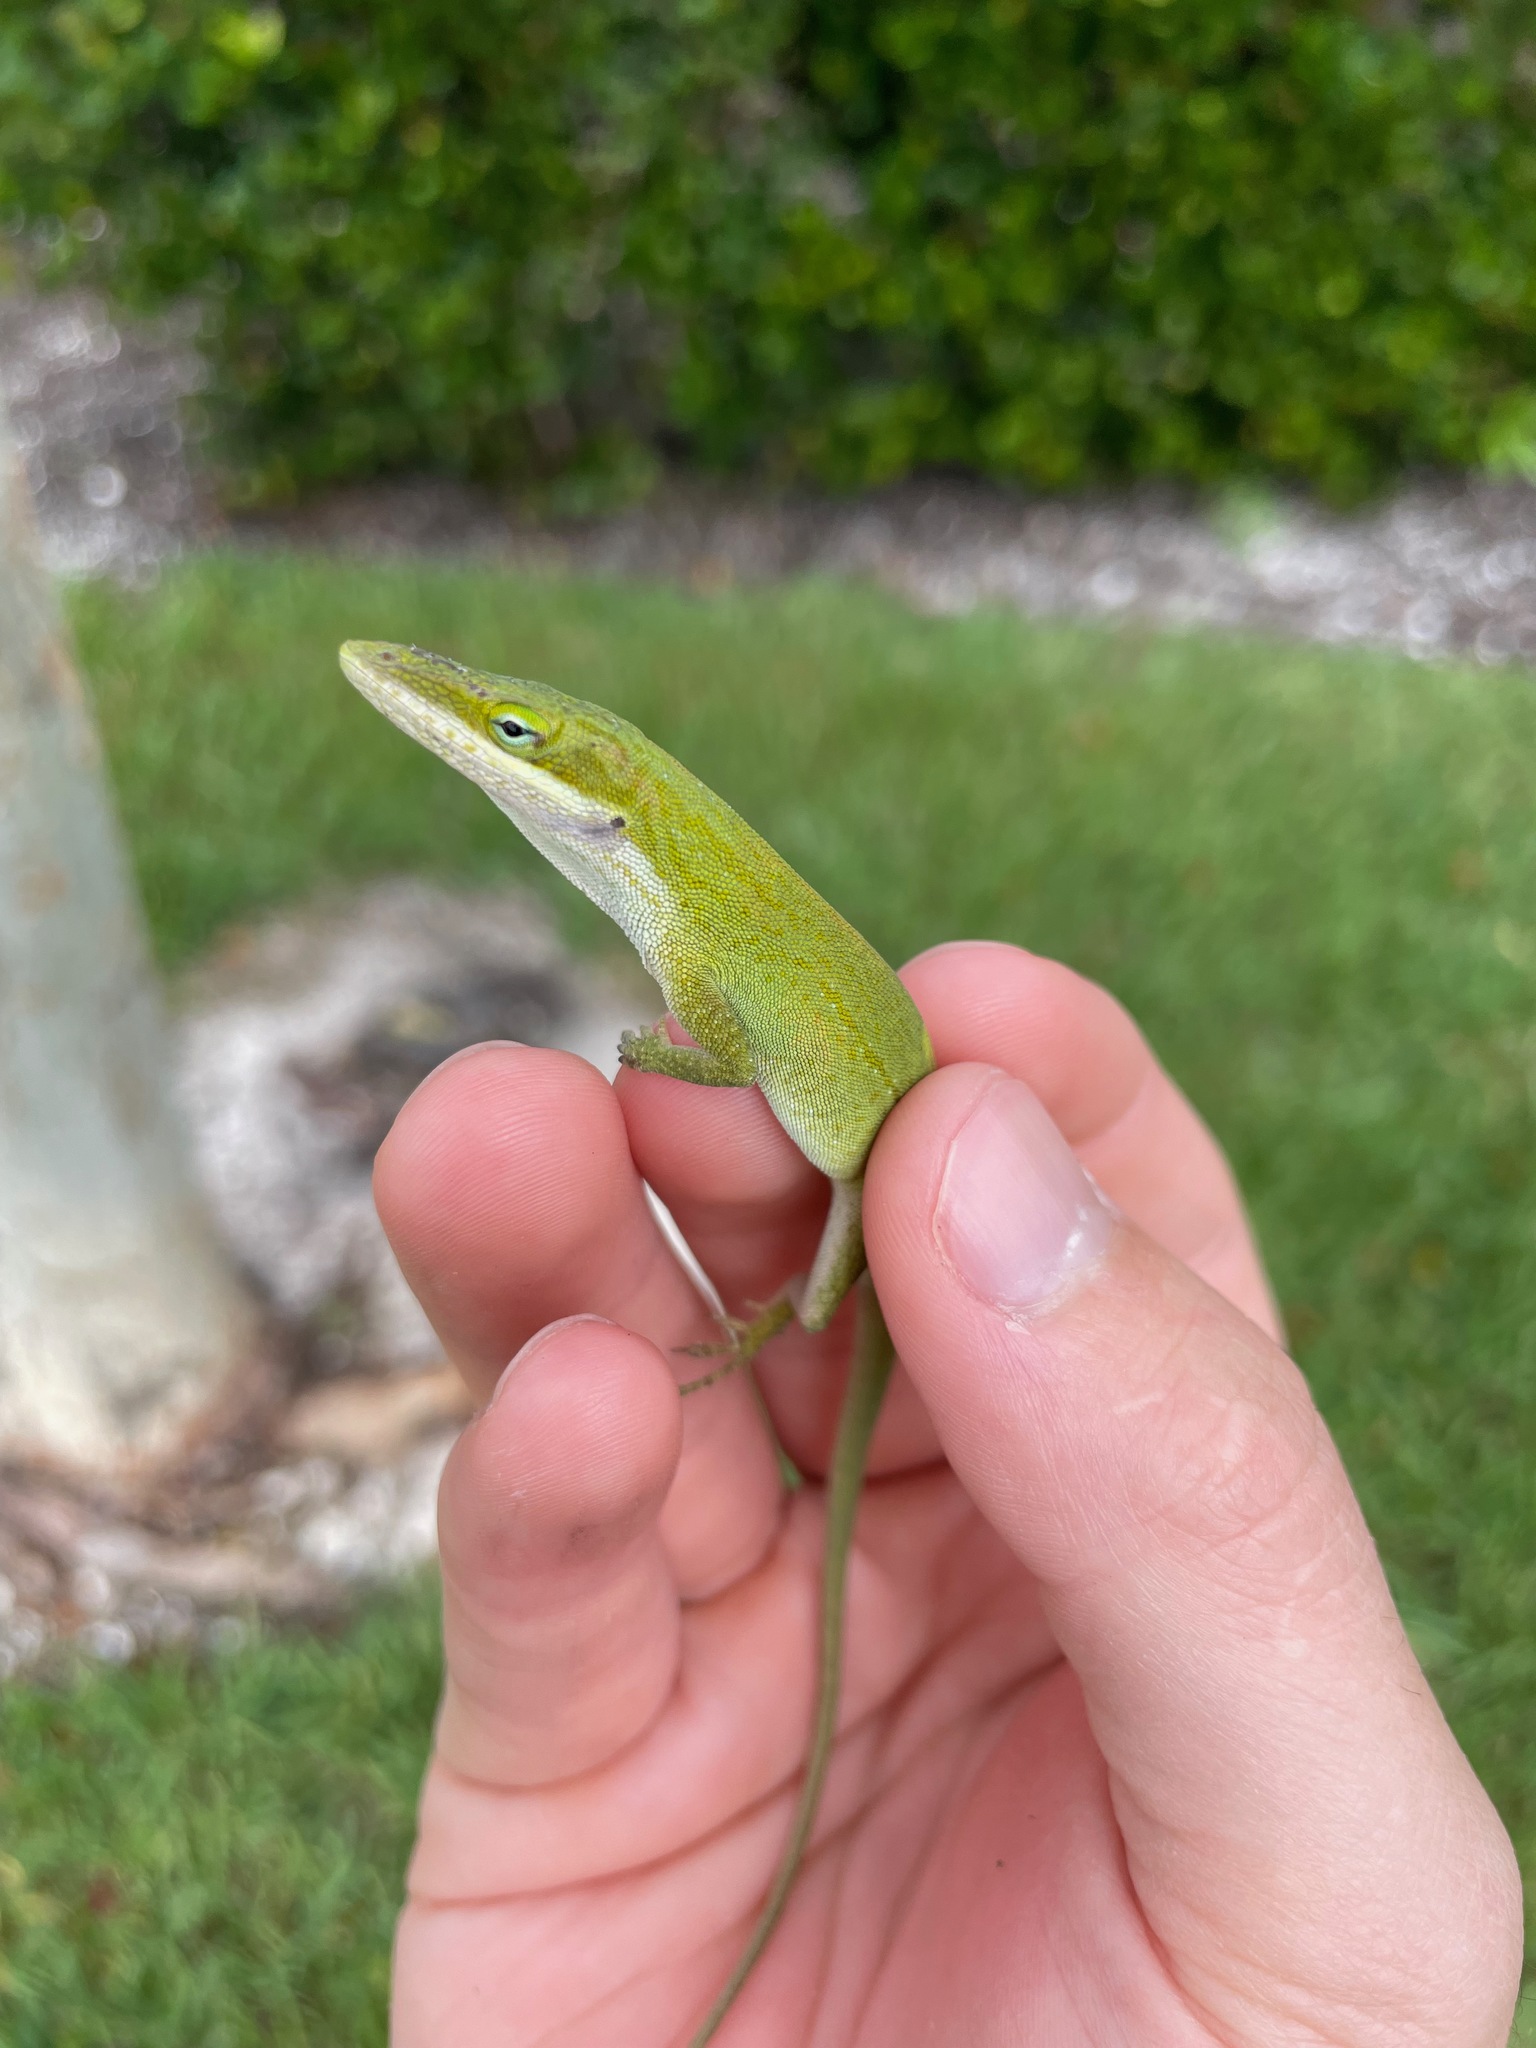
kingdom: Animalia
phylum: Chordata
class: Squamata
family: Dactyloidae
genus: Anolis
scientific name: Anolis carolinensis
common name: Green anole
